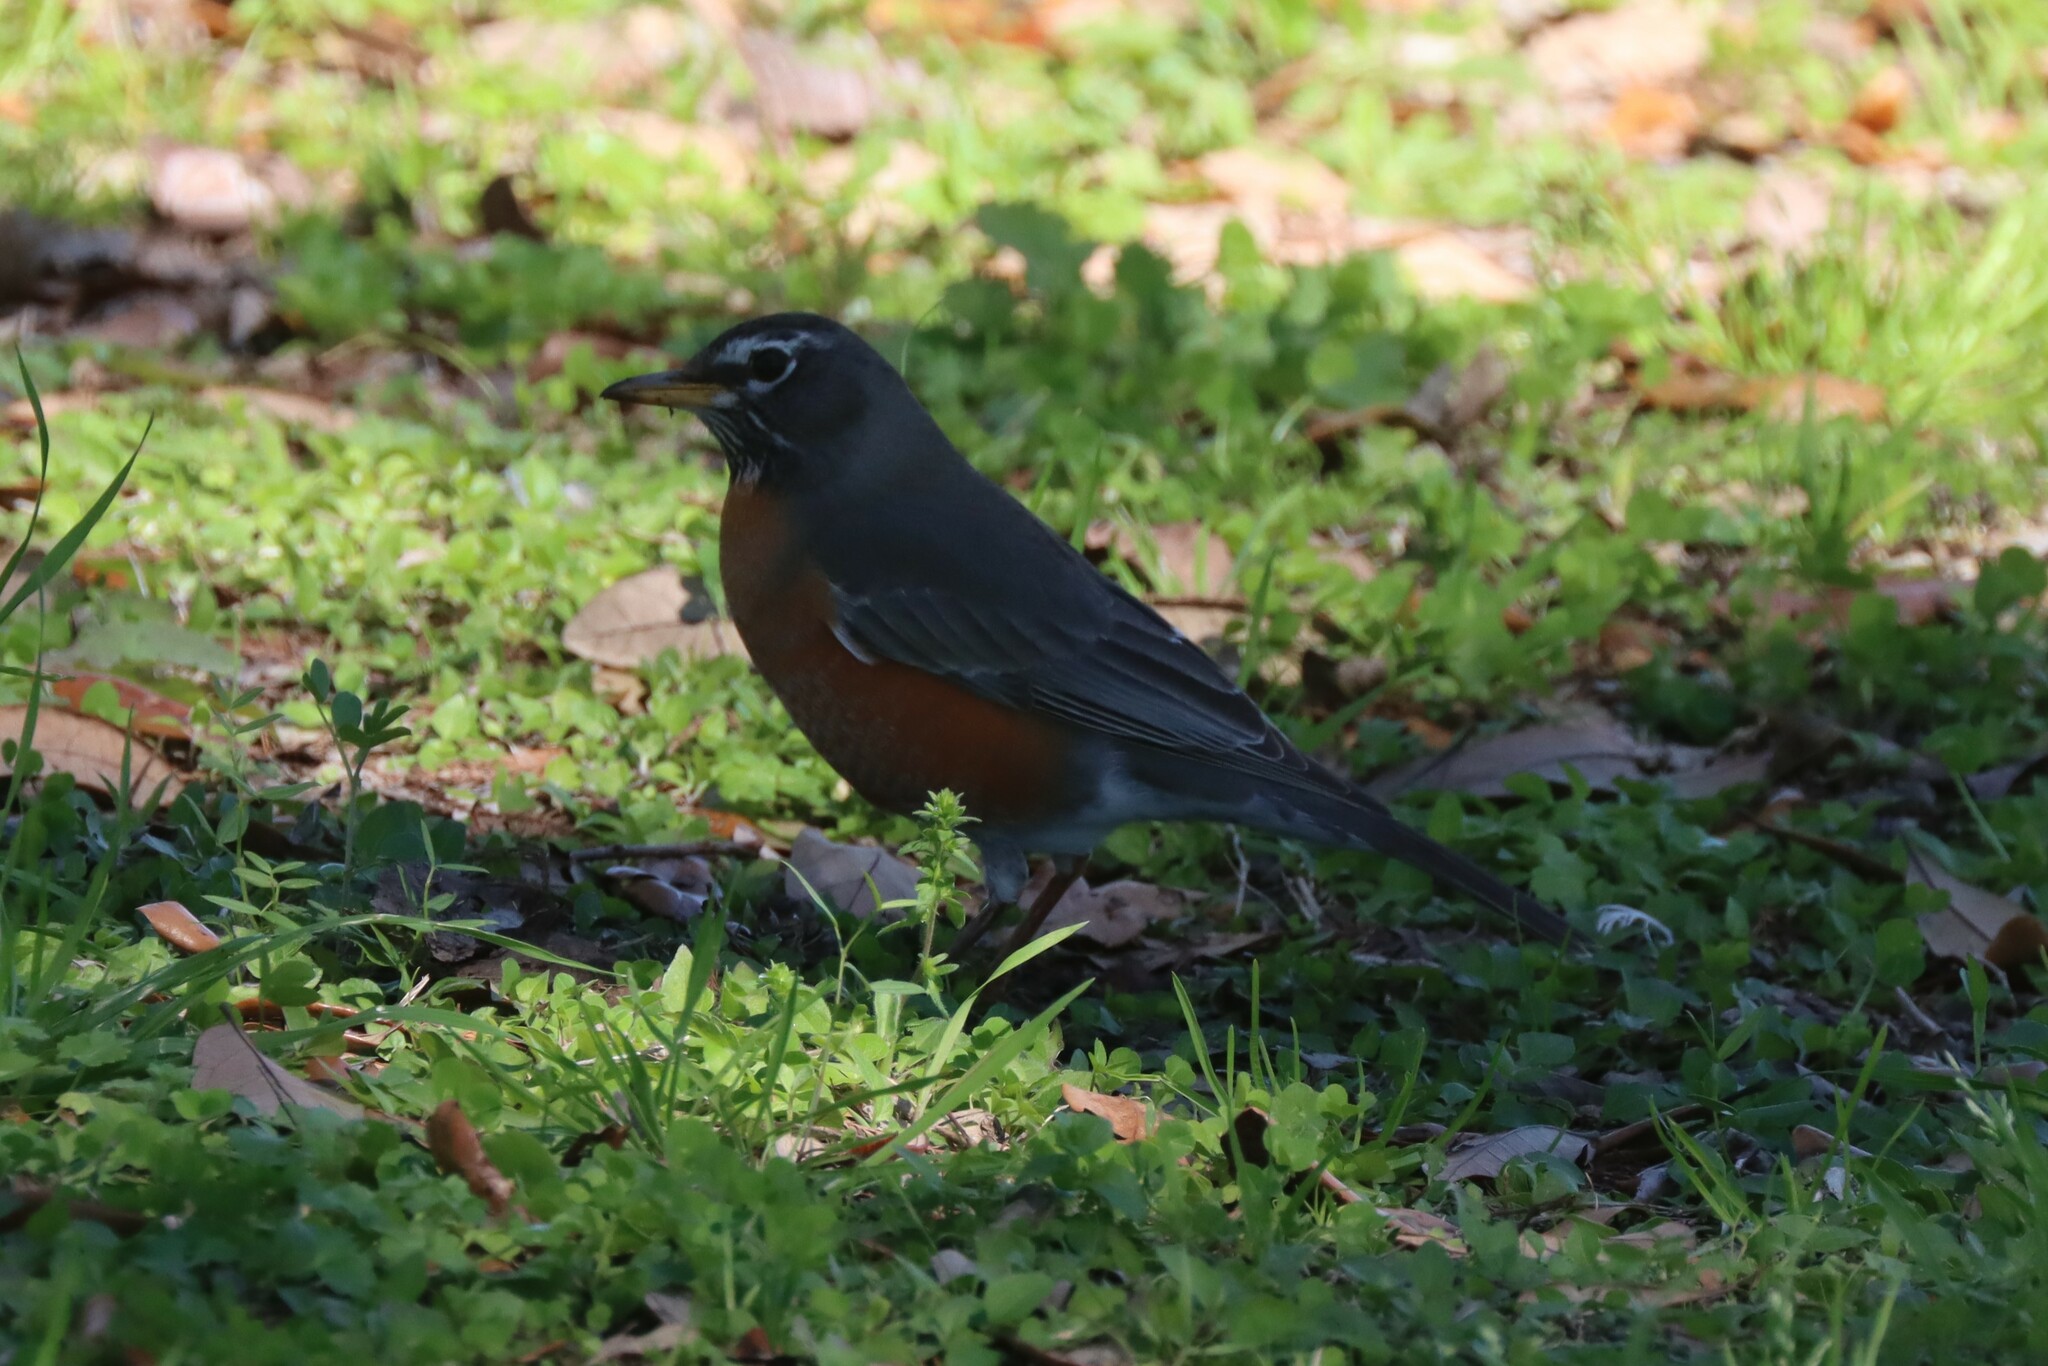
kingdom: Animalia
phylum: Chordata
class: Aves
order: Passeriformes
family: Turdidae
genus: Turdus
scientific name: Turdus migratorius
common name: American robin
